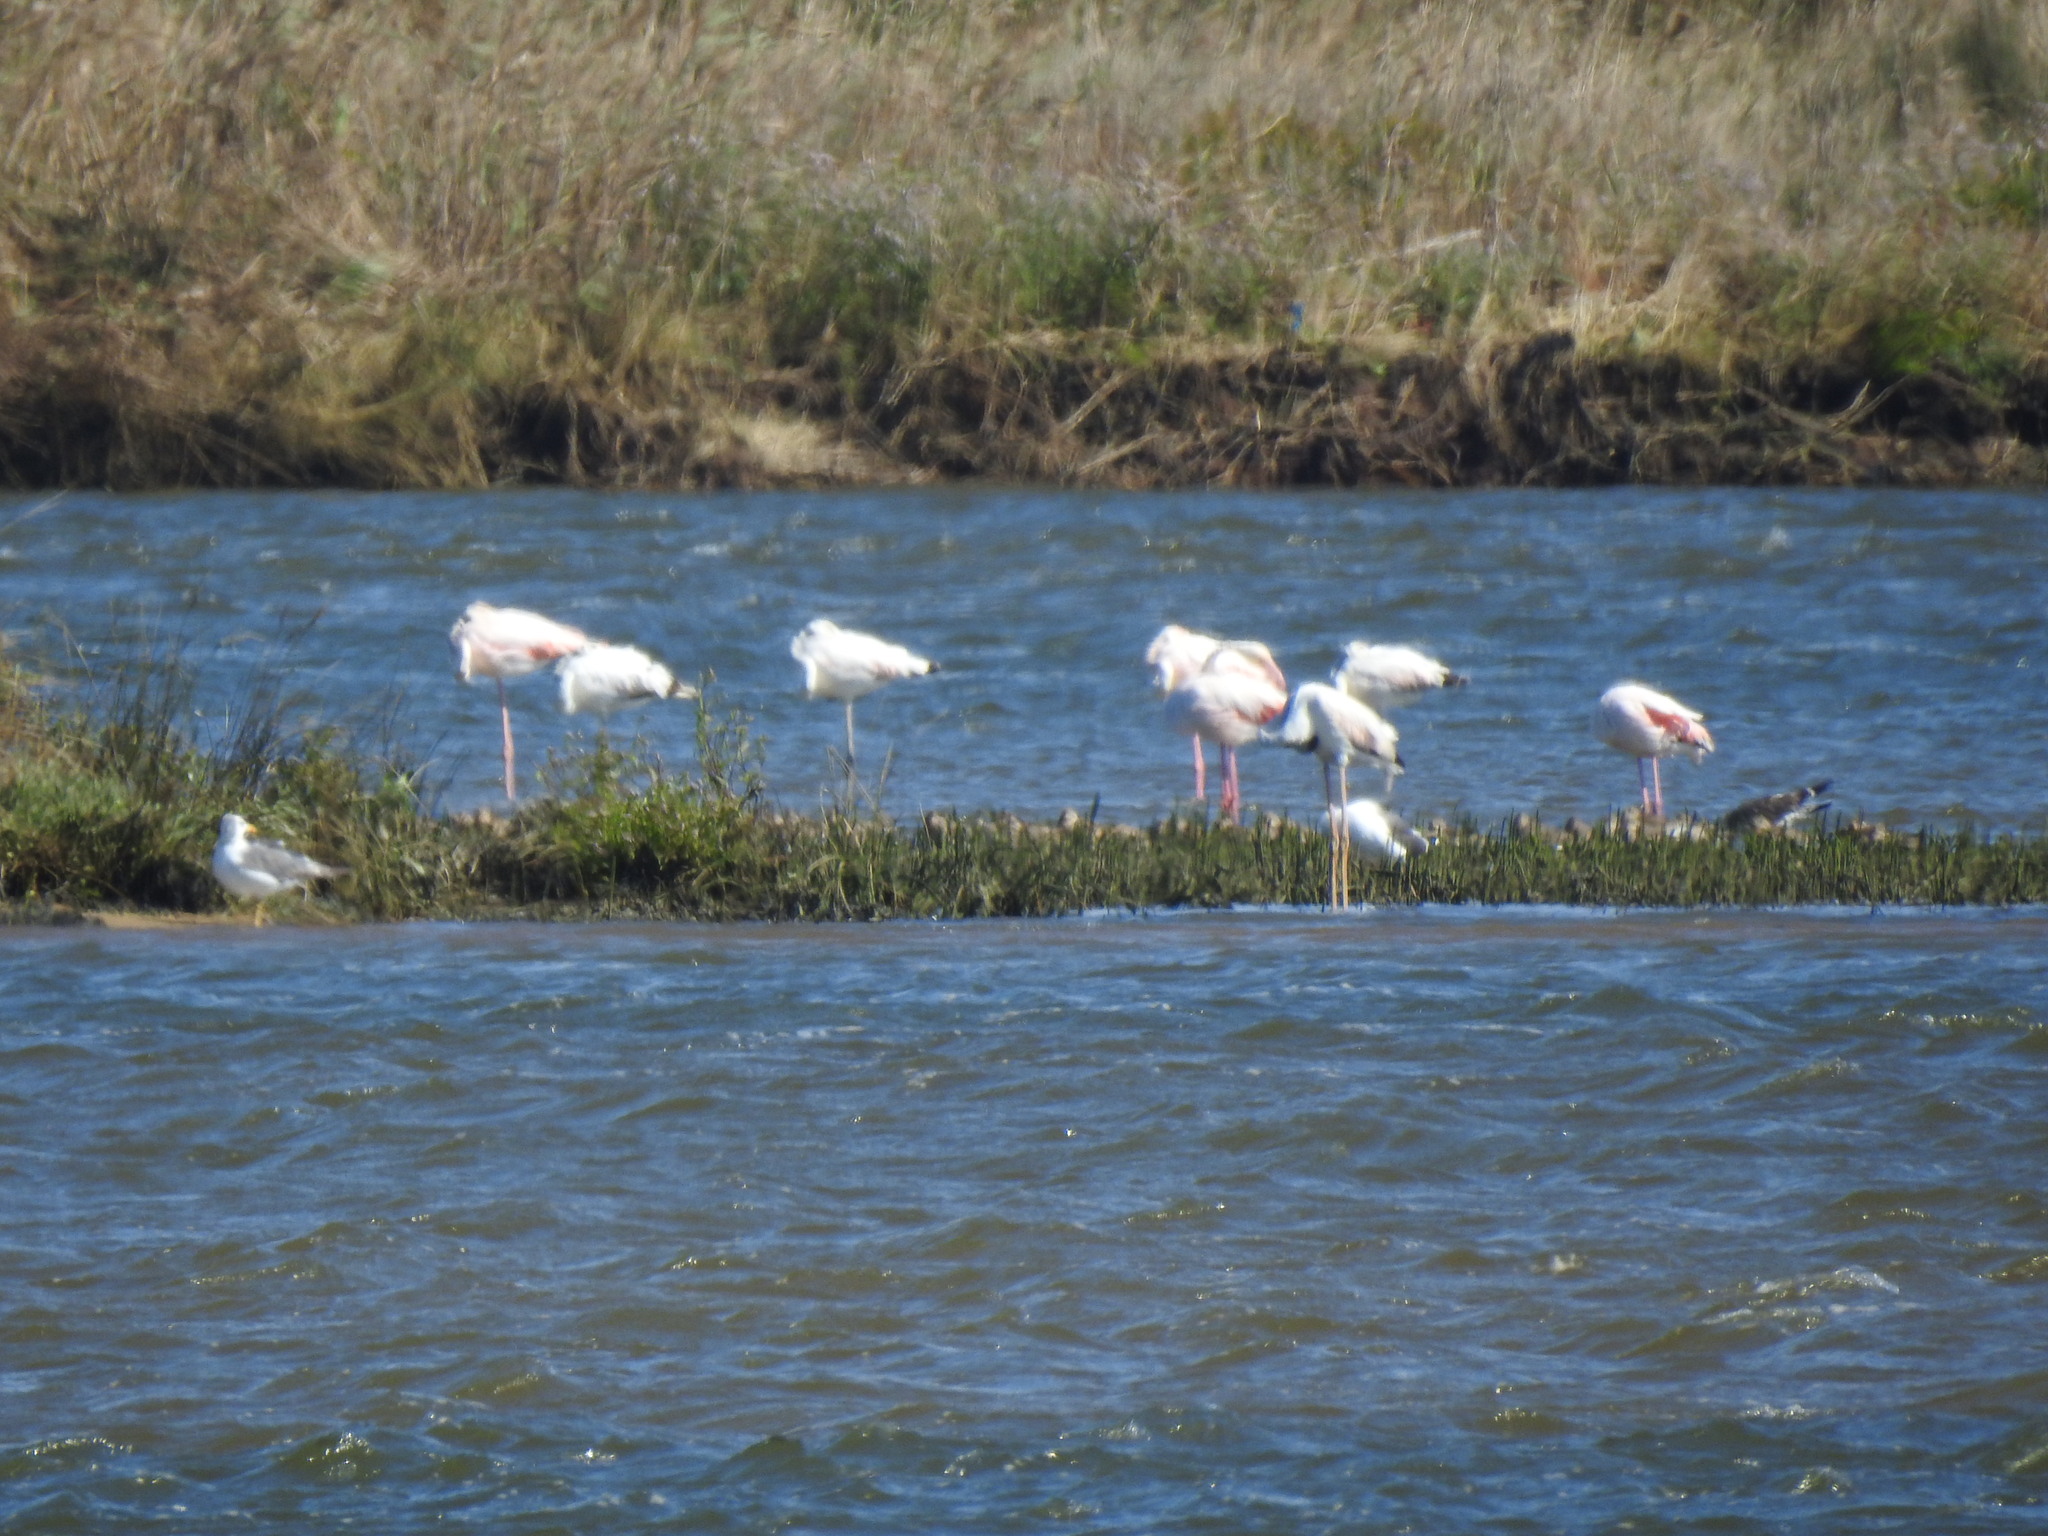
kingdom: Animalia
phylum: Chordata
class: Aves
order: Phoenicopteriformes
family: Phoenicopteridae
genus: Phoenicopterus
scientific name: Phoenicopterus roseus
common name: Greater flamingo
